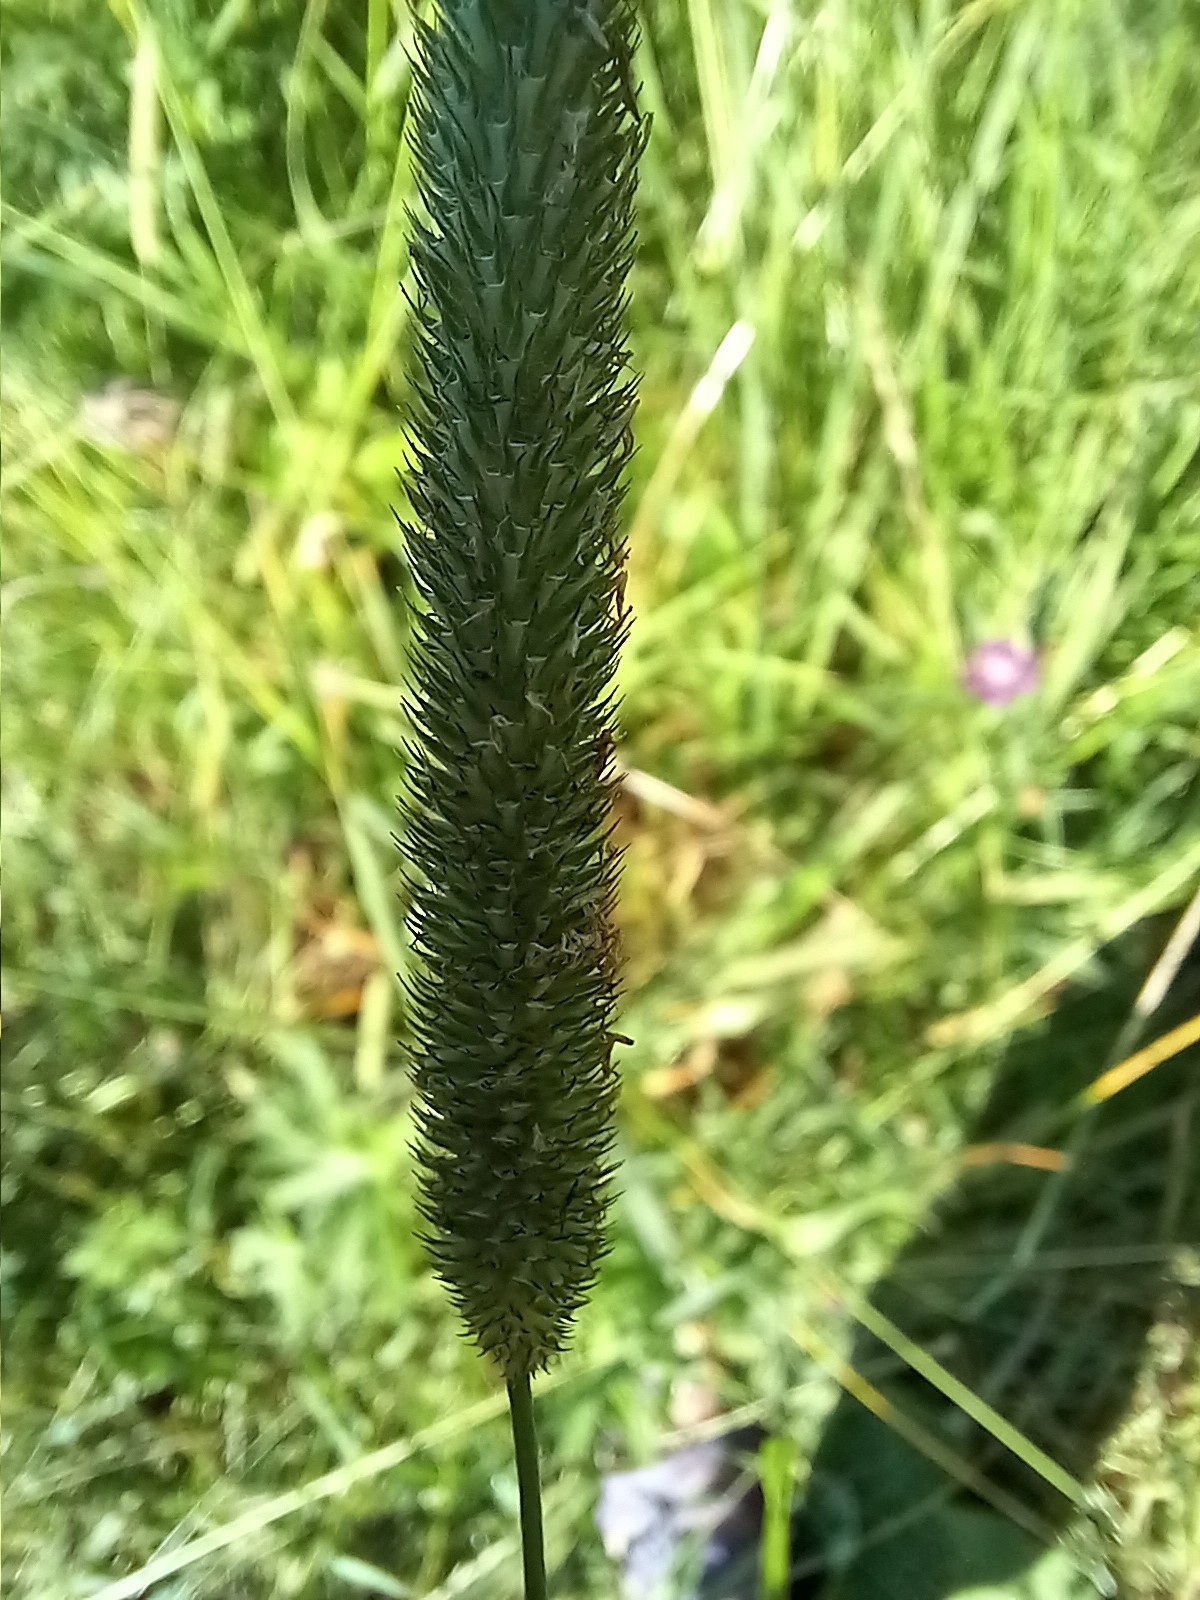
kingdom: Plantae
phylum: Tracheophyta
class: Liliopsida
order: Poales
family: Poaceae
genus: Phleum
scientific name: Phleum pratense
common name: Timothy grass
